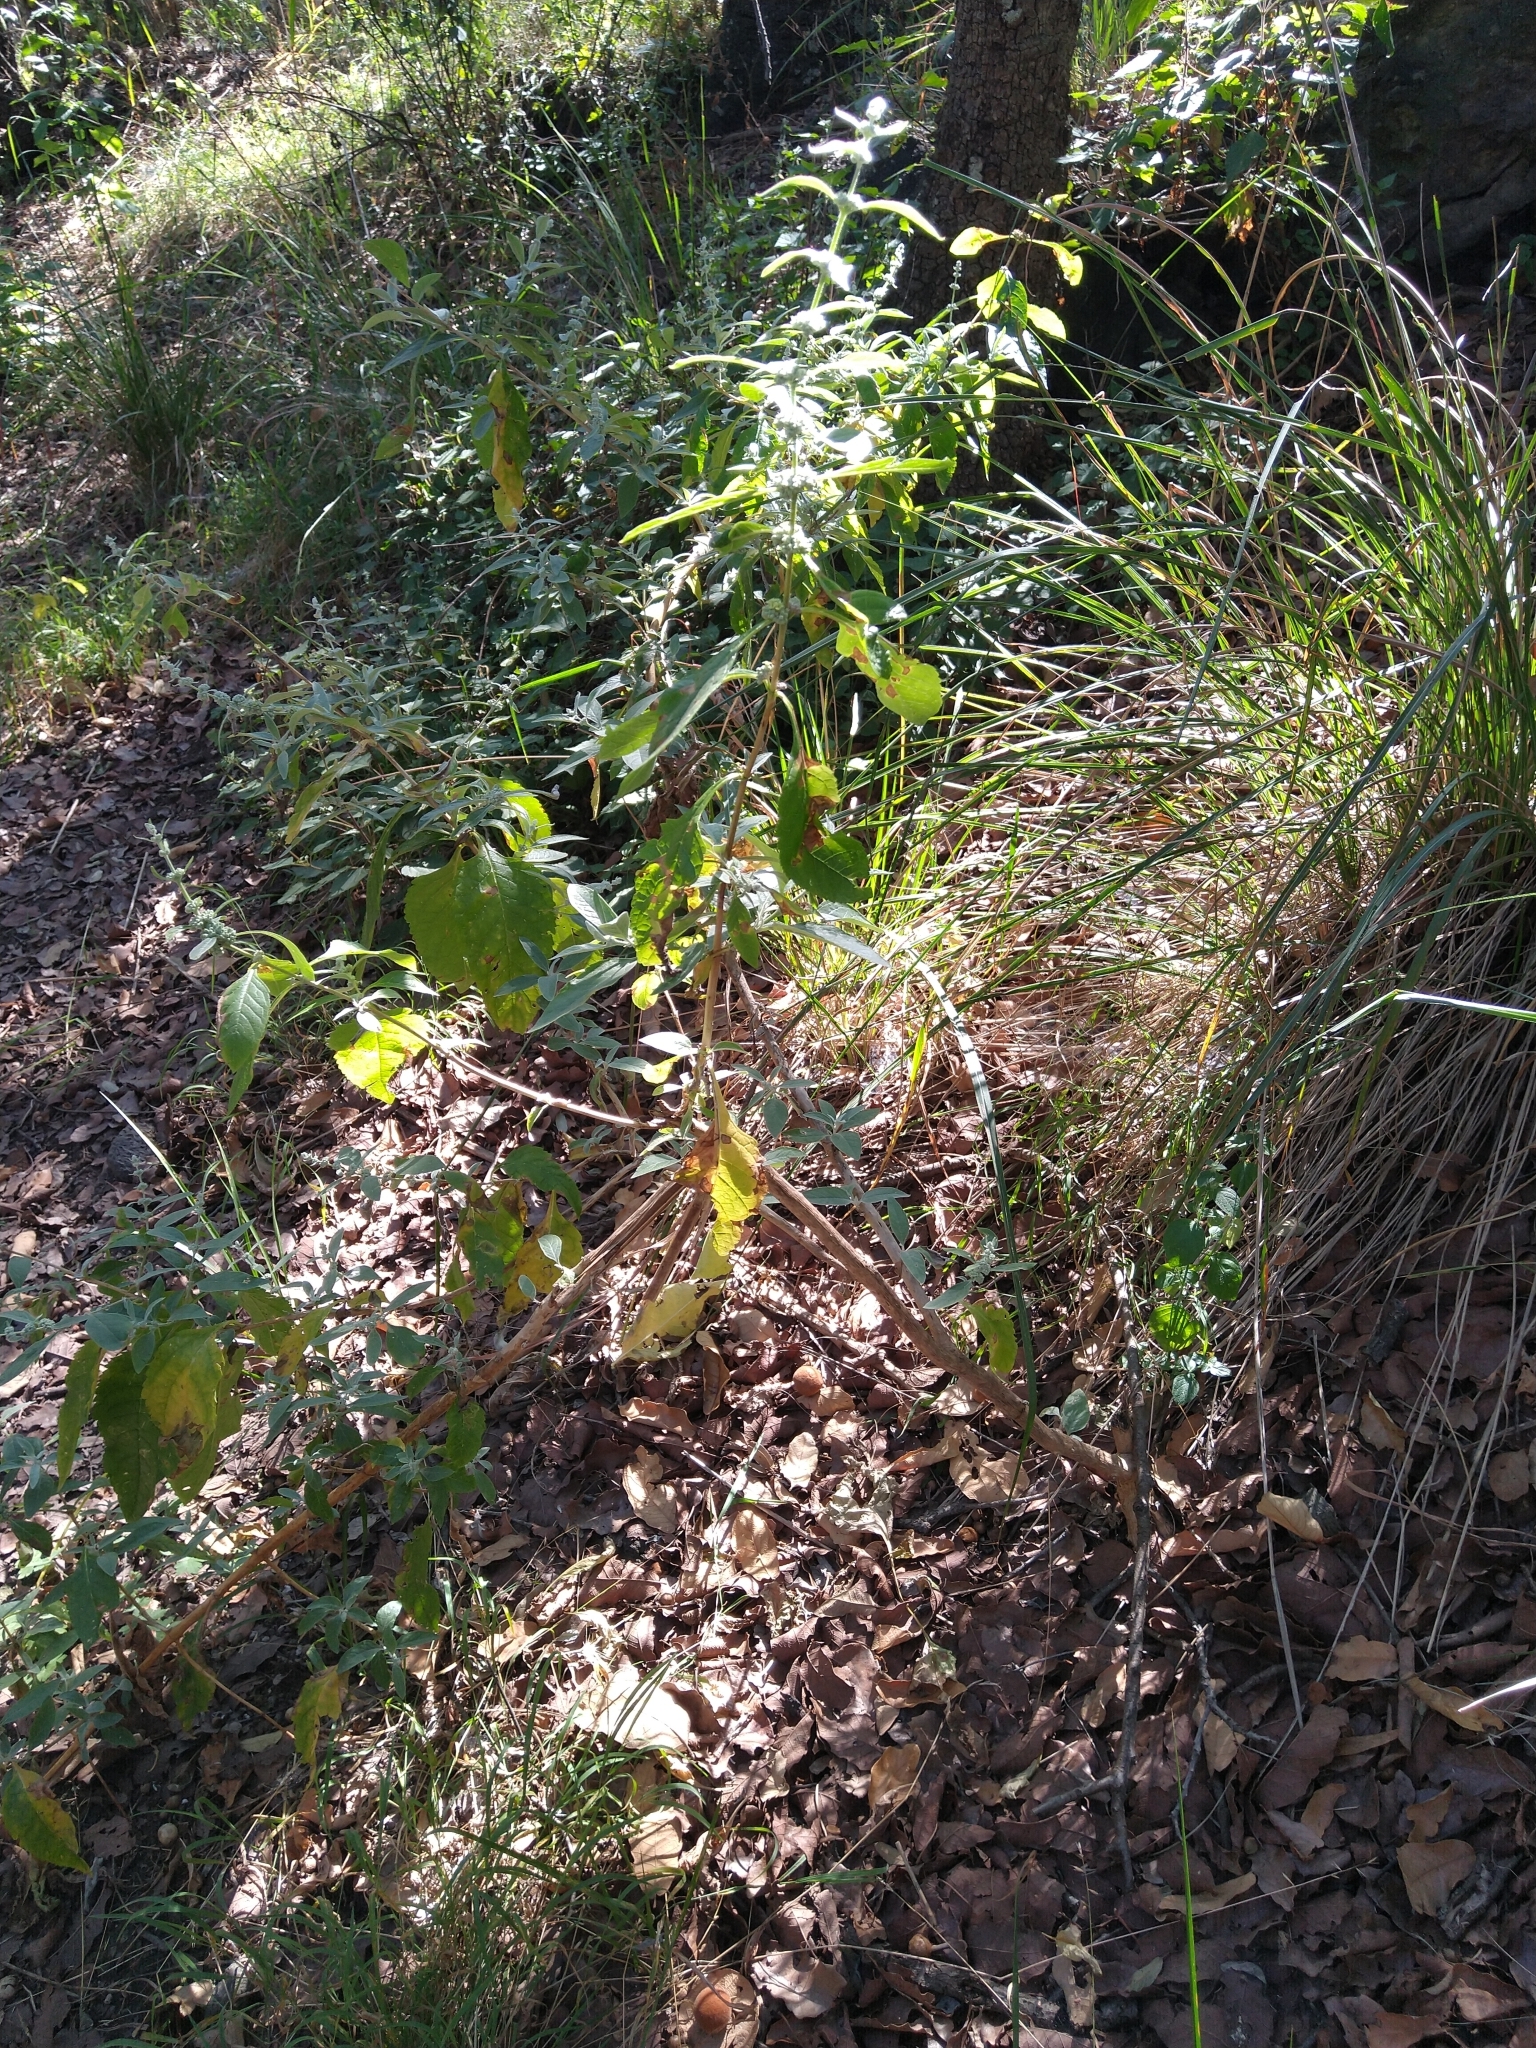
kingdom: Plantae
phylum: Tracheophyta
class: Magnoliopsida
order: Lamiales
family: Scrophulariaceae
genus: Buddleja
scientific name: Buddleja sessiliflora
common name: Rio grande butterfly-bush
